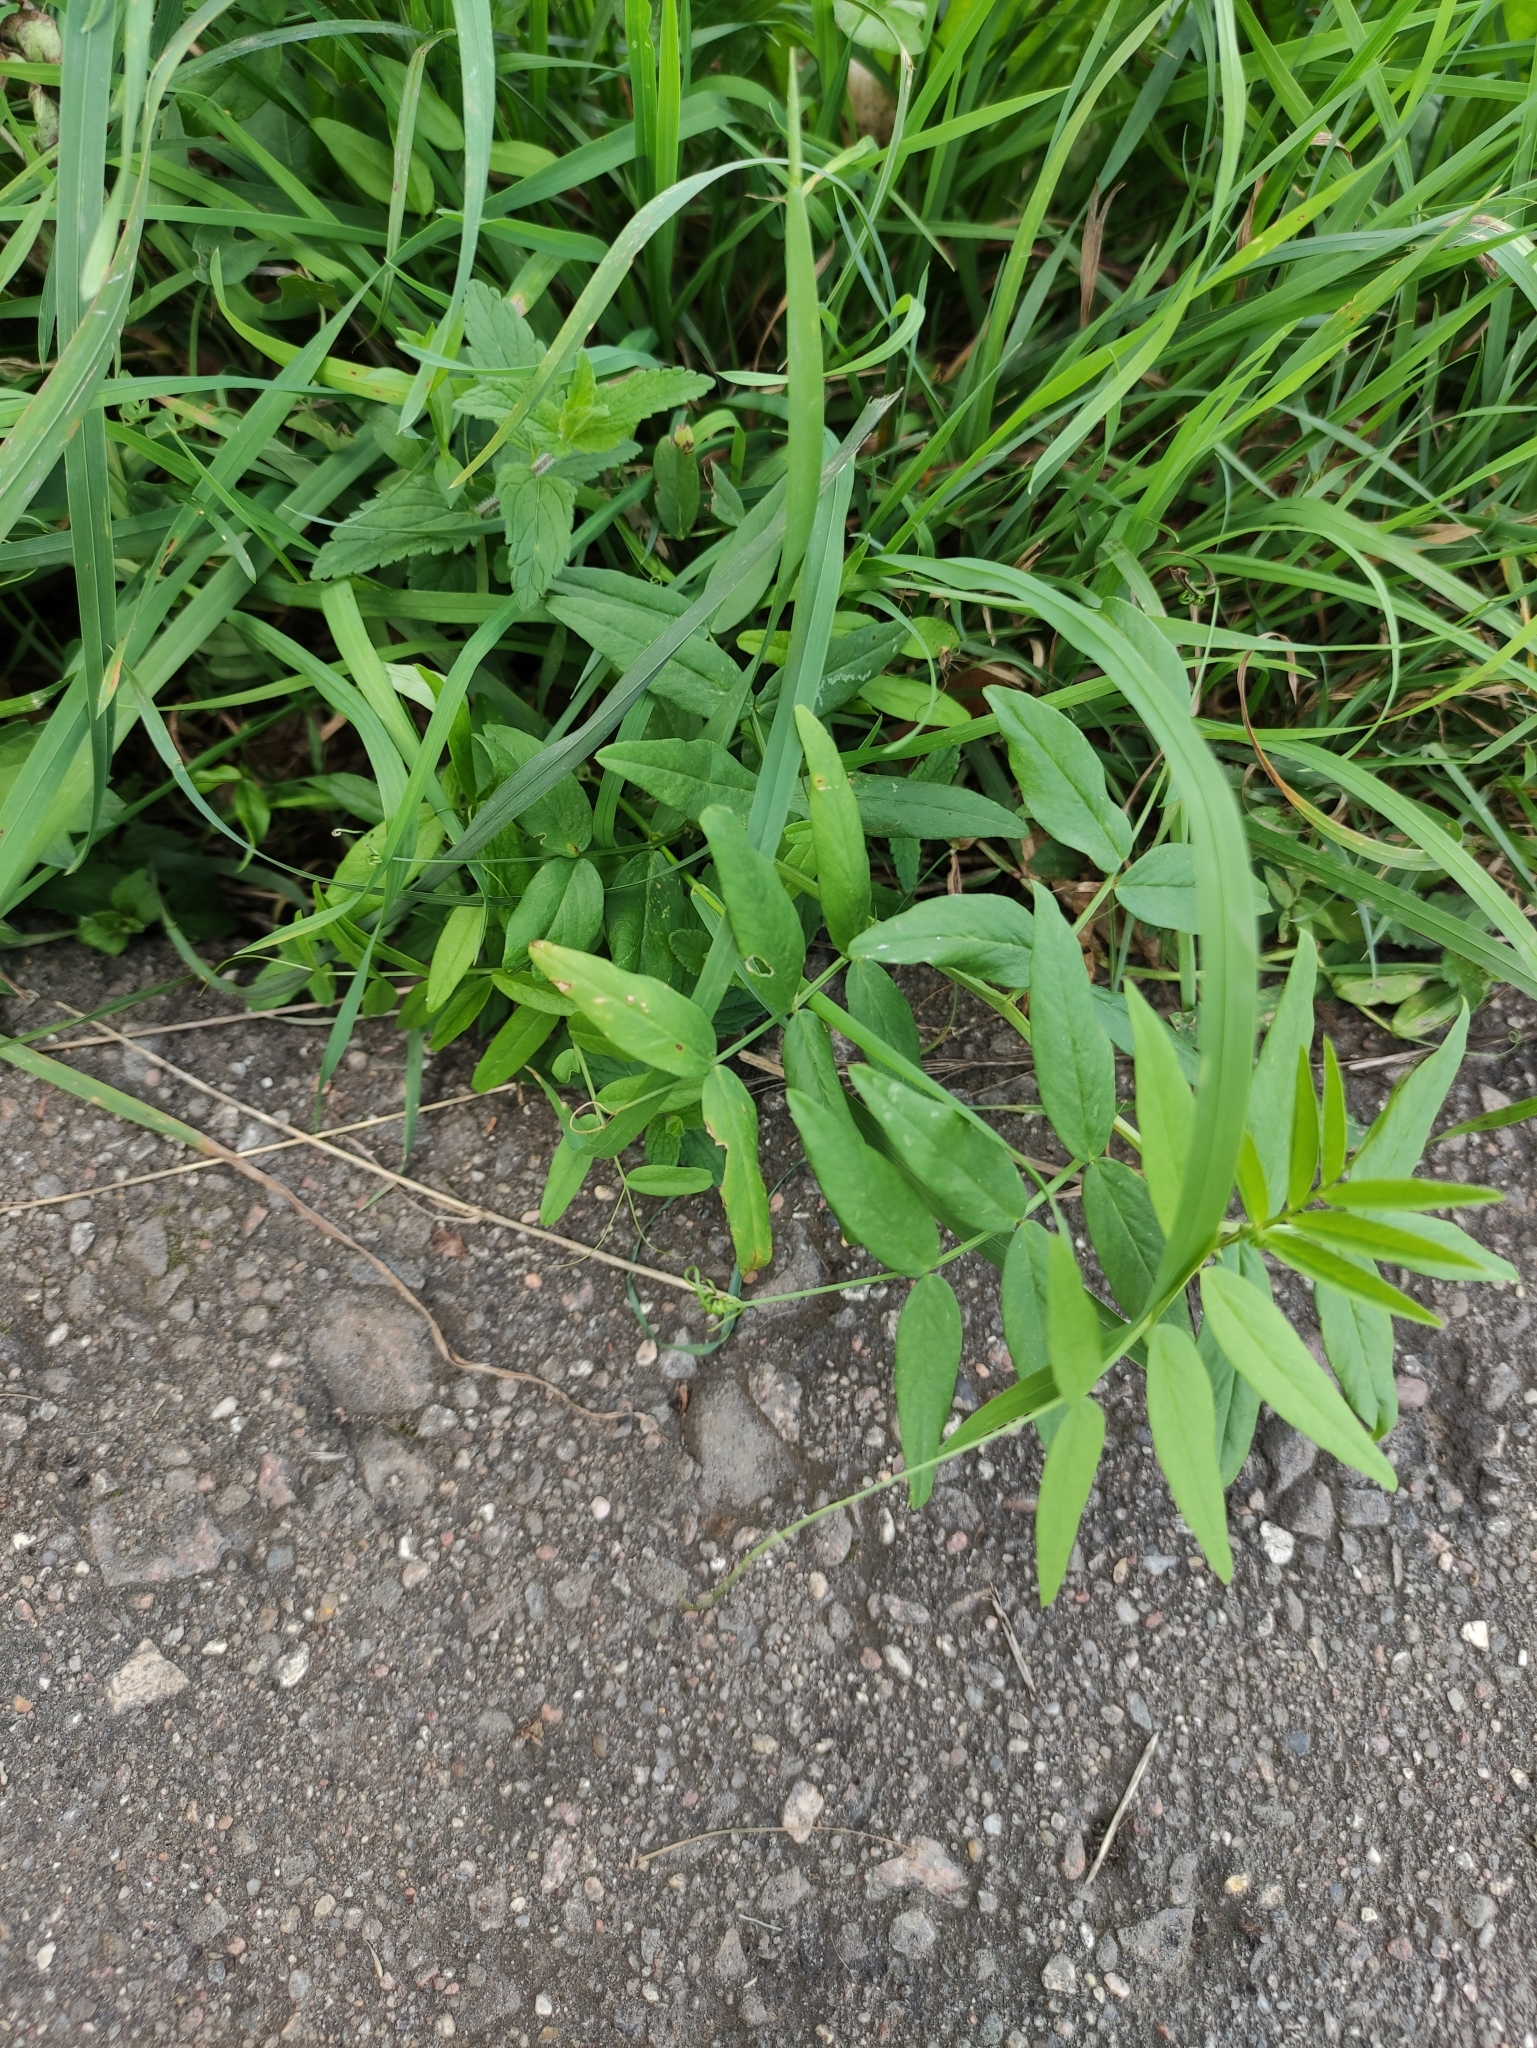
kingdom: Plantae
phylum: Tracheophyta
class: Magnoliopsida
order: Fabales
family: Fabaceae
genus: Vicia
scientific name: Vicia sepium
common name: Bush vetch
